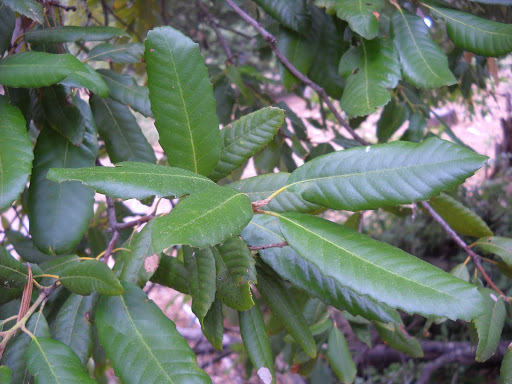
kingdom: Plantae
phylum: Tracheophyta
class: Magnoliopsida
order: Fagales
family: Fagaceae
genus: Notholithocarpus
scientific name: Notholithocarpus densiflorus
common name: Tan bark oak
